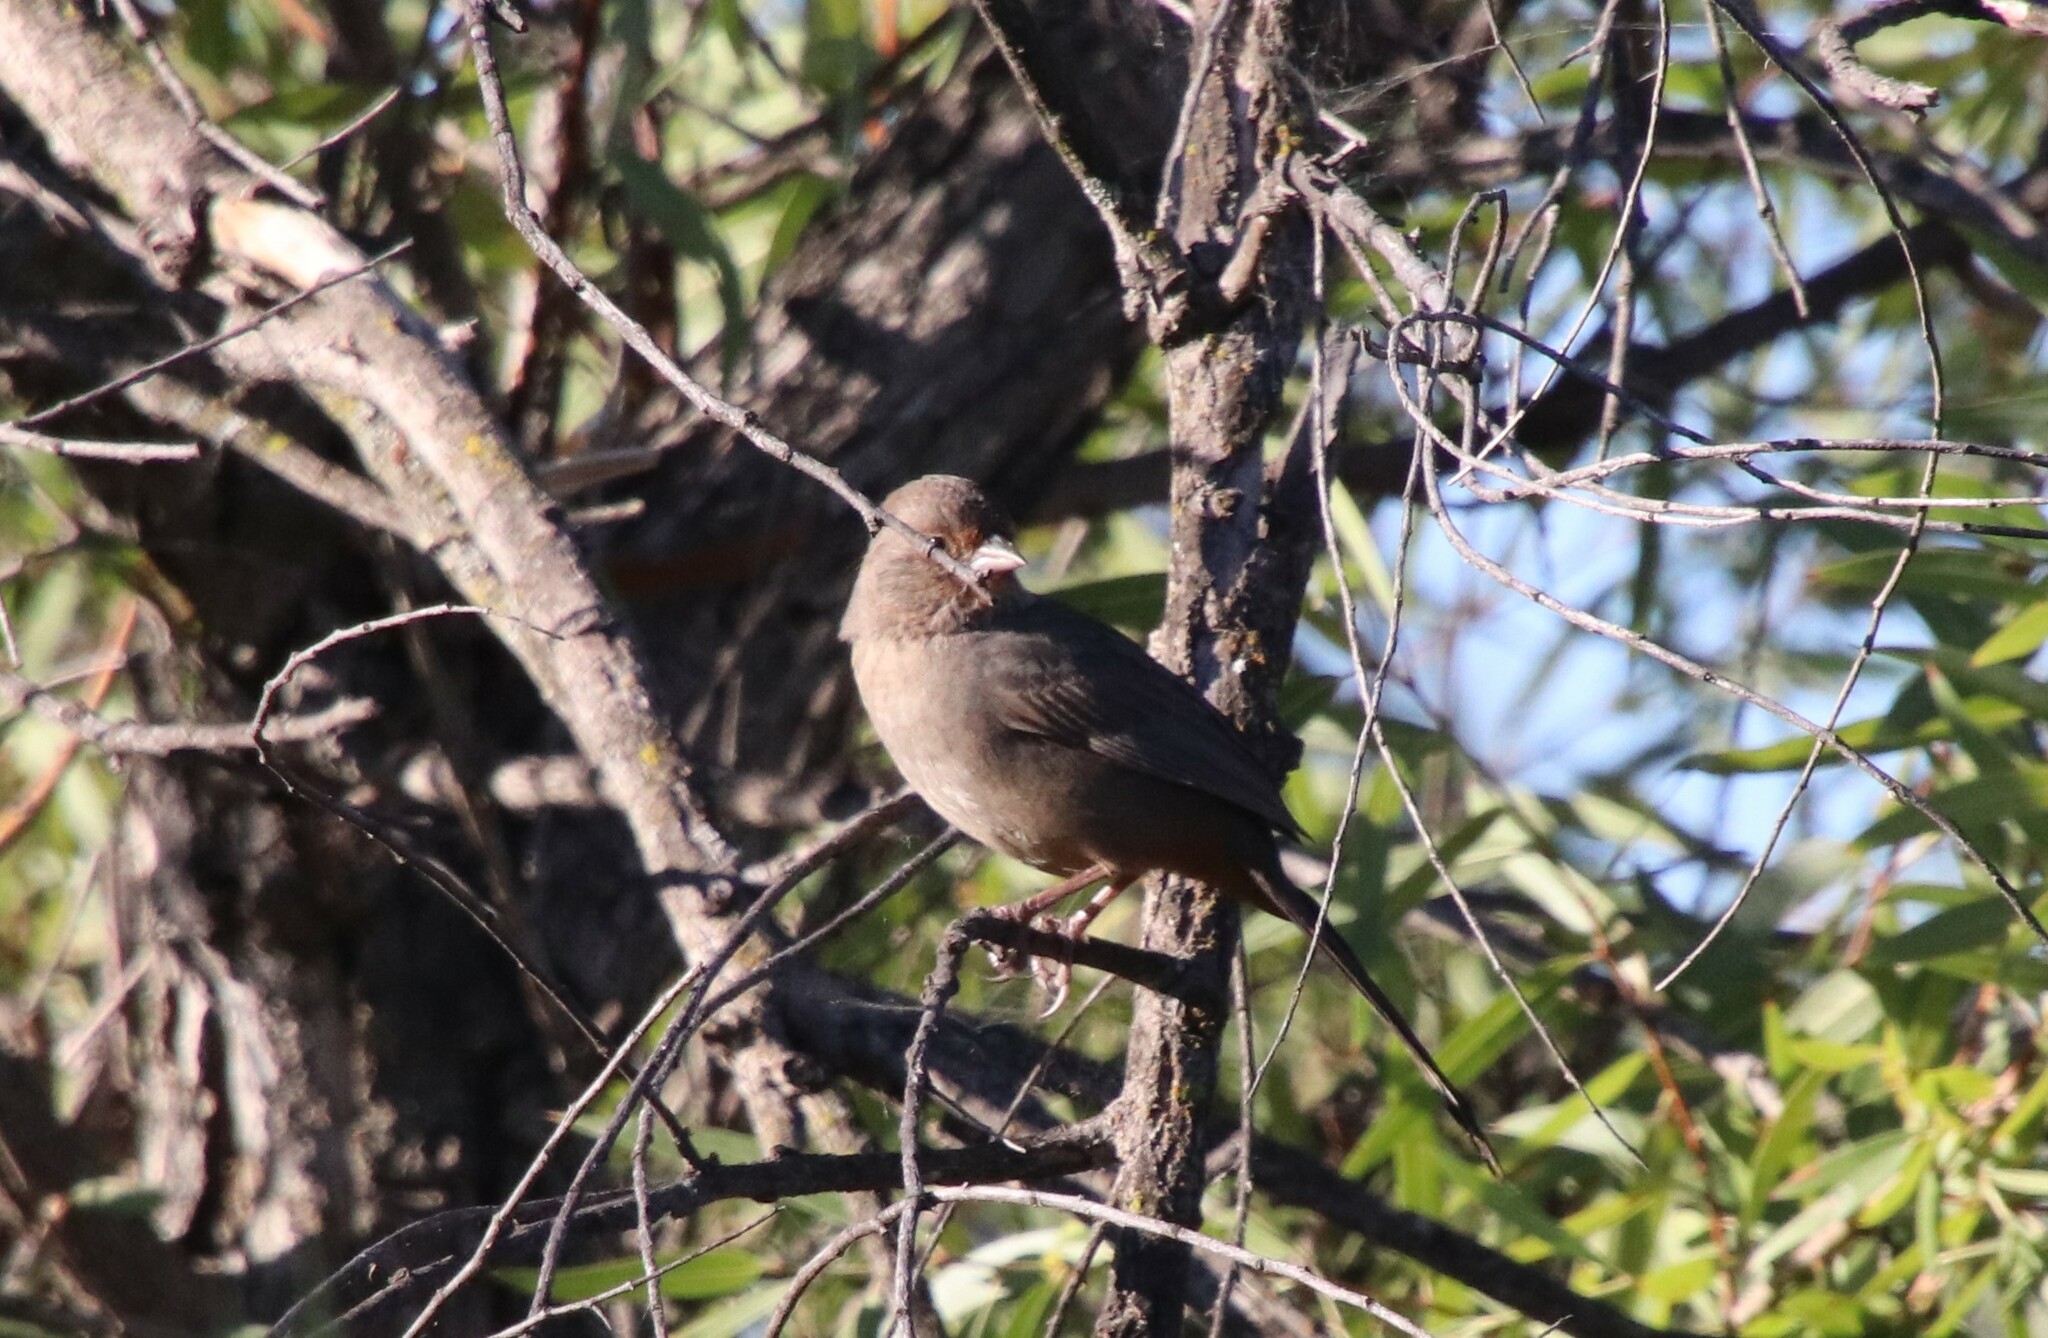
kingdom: Animalia
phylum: Chordata
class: Aves
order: Passeriformes
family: Passerellidae
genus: Melozone
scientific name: Melozone crissalis
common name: California towhee
